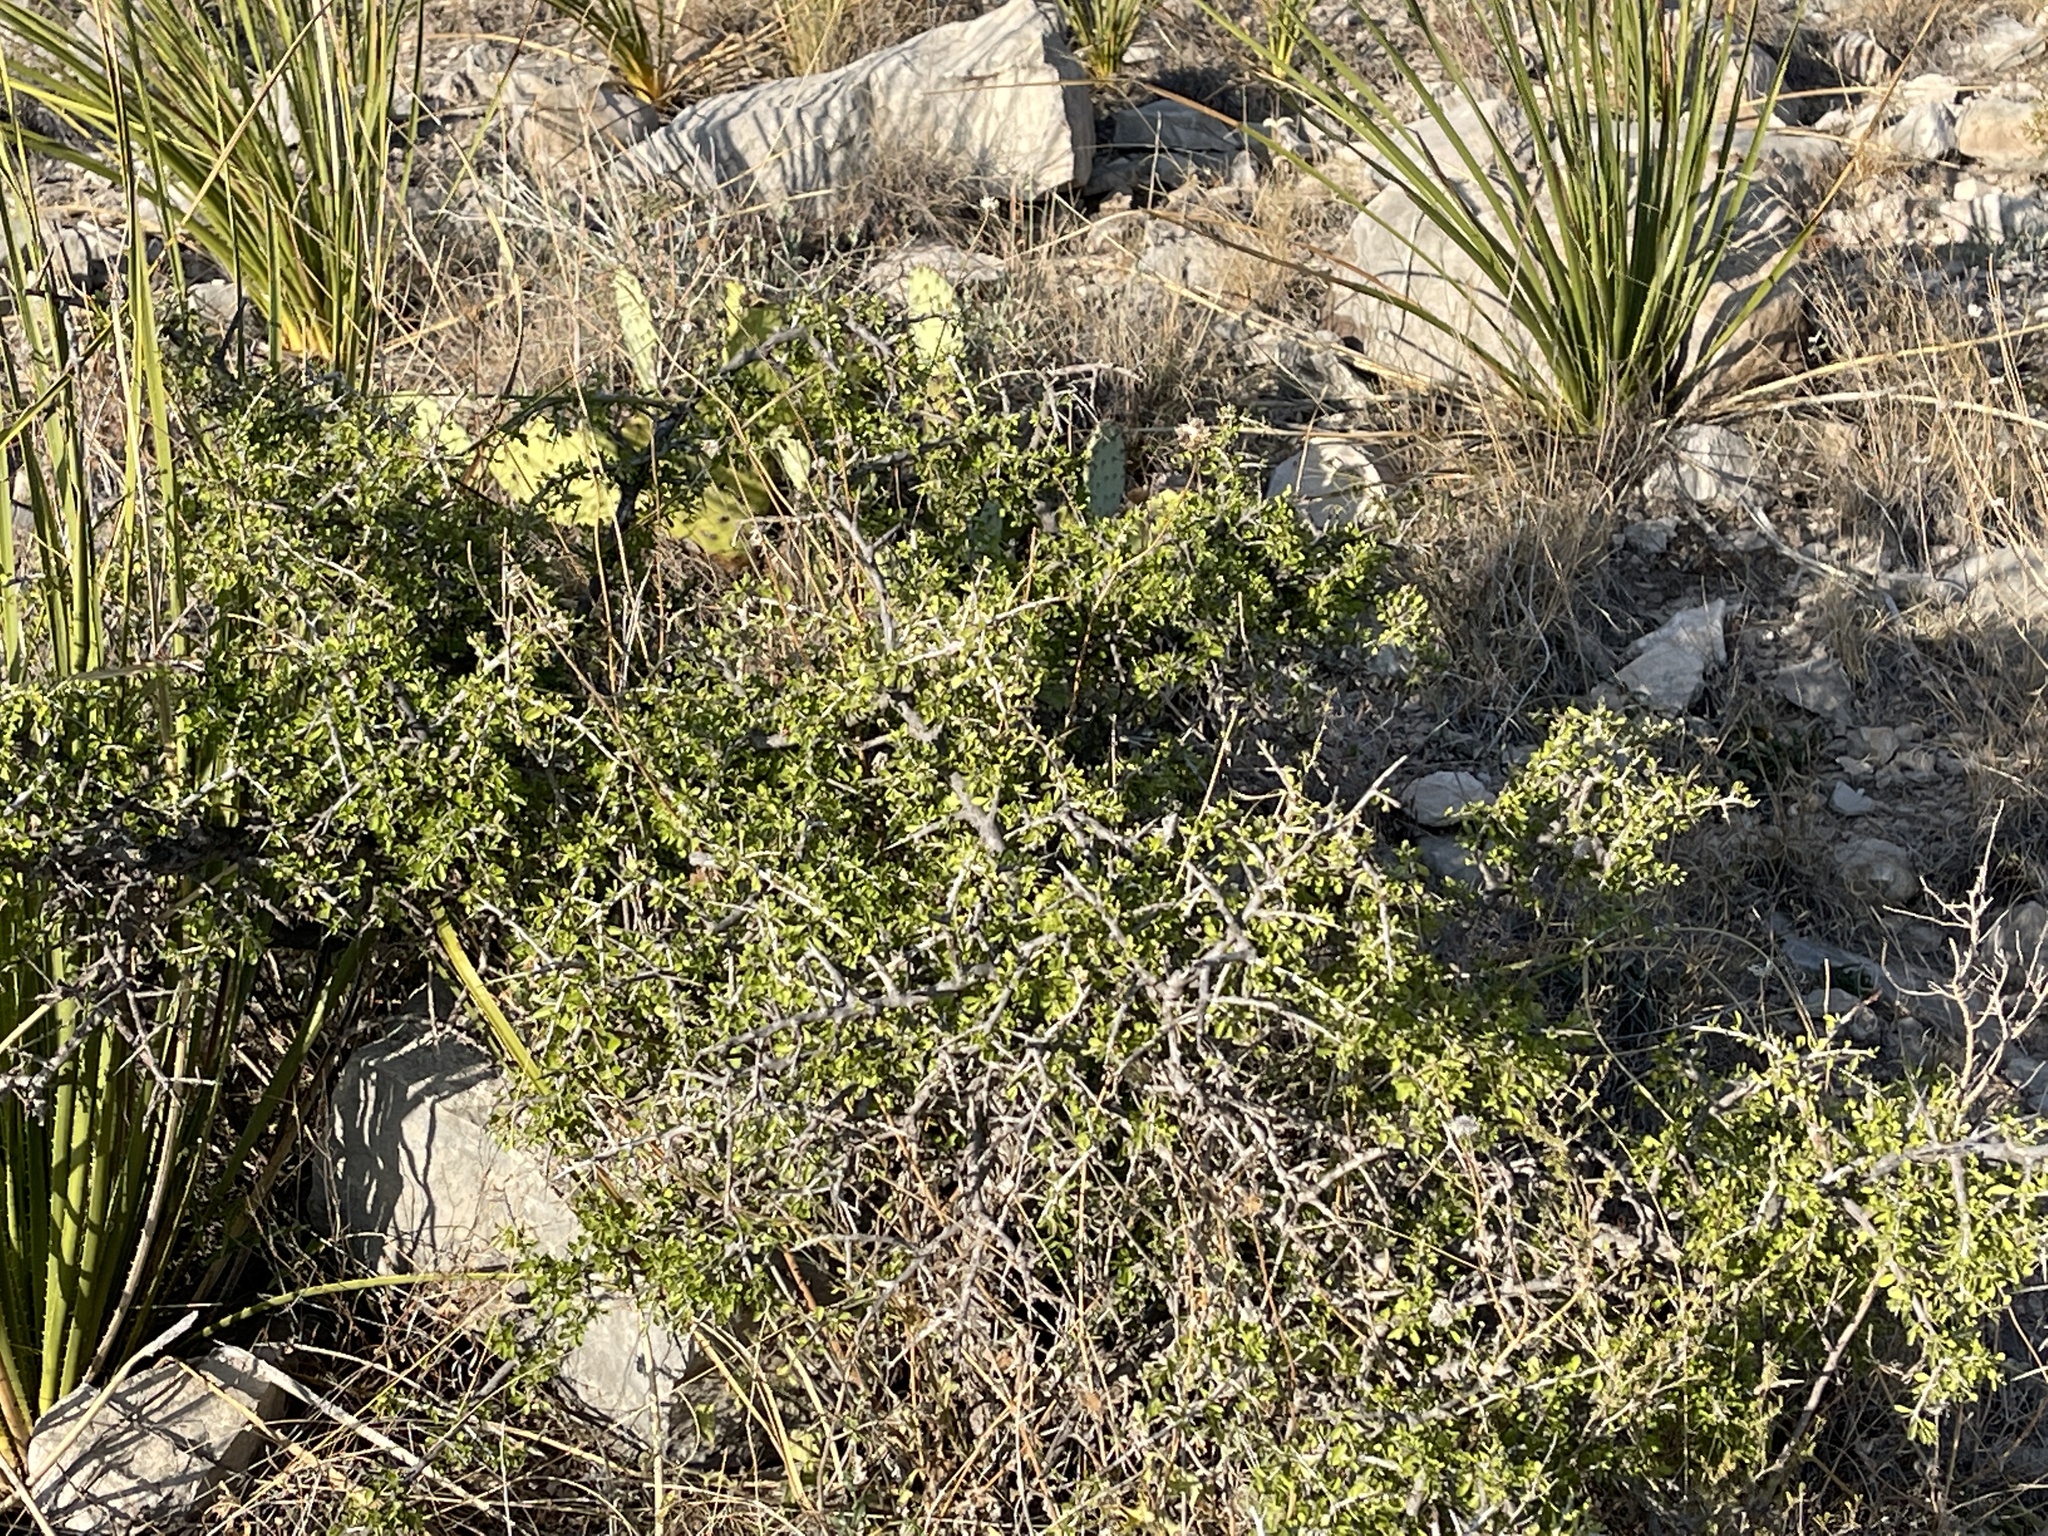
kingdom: Plantae
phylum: Tracheophyta
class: Magnoliopsida
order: Rosales
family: Rhamnaceae
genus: Condalia
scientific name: Condalia viridis
